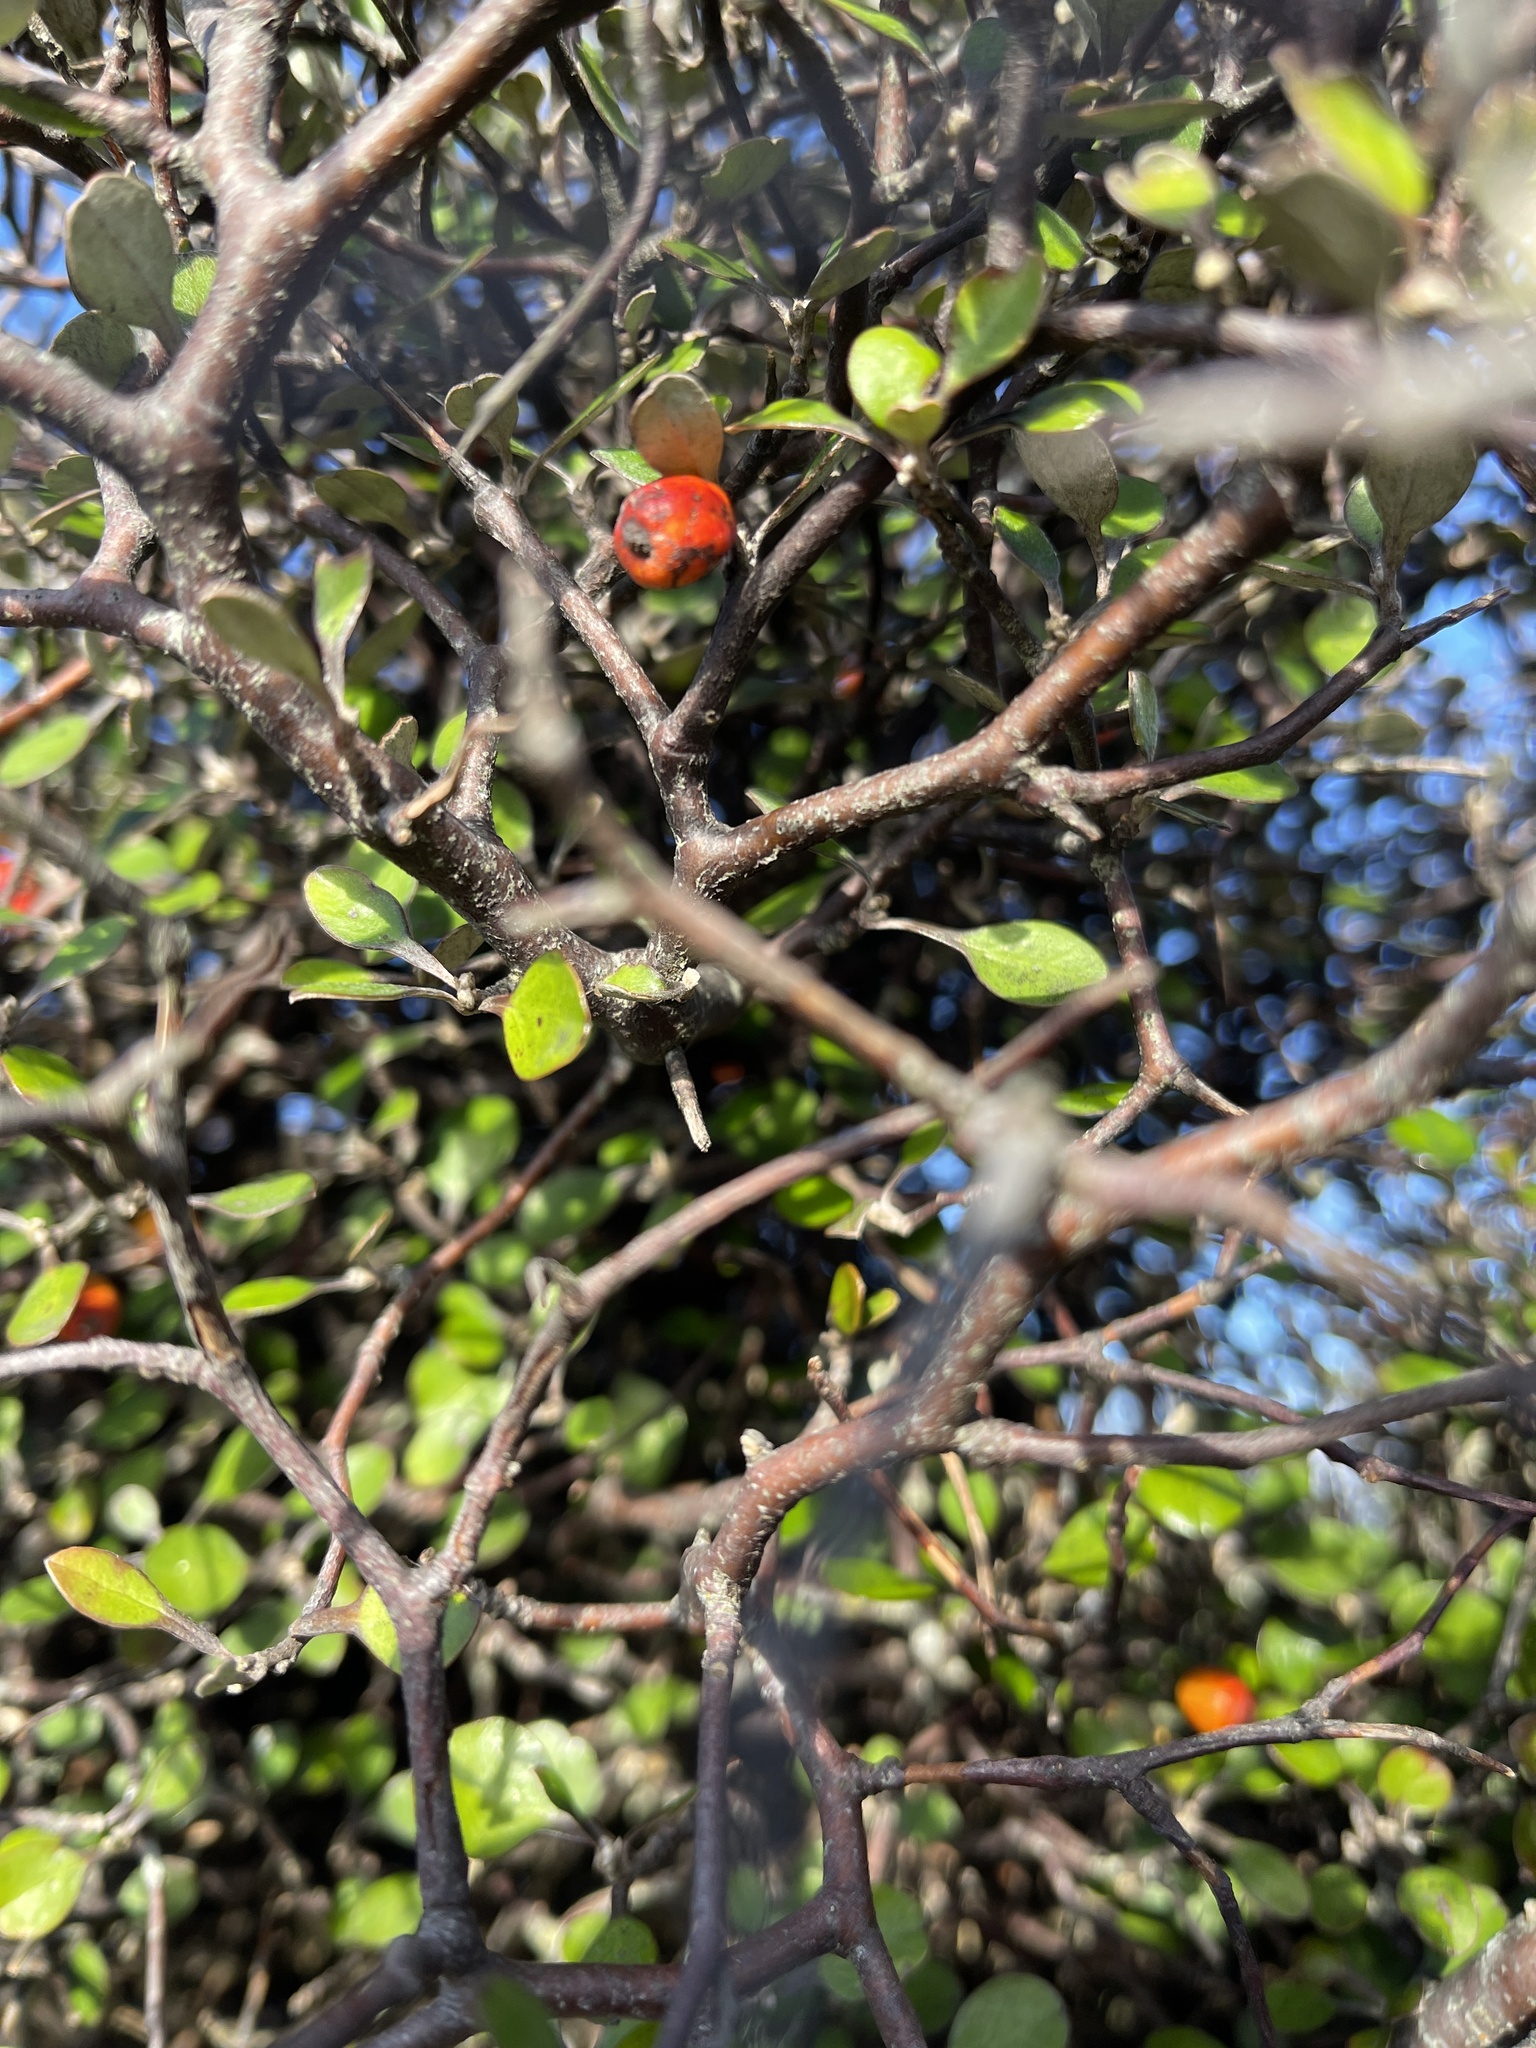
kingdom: Plantae
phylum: Tracheophyta
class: Magnoliopsida
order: Asterales
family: Argophyllaceae
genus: Corokia
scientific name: Corokia cotoneaster
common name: Wire nettingbush
